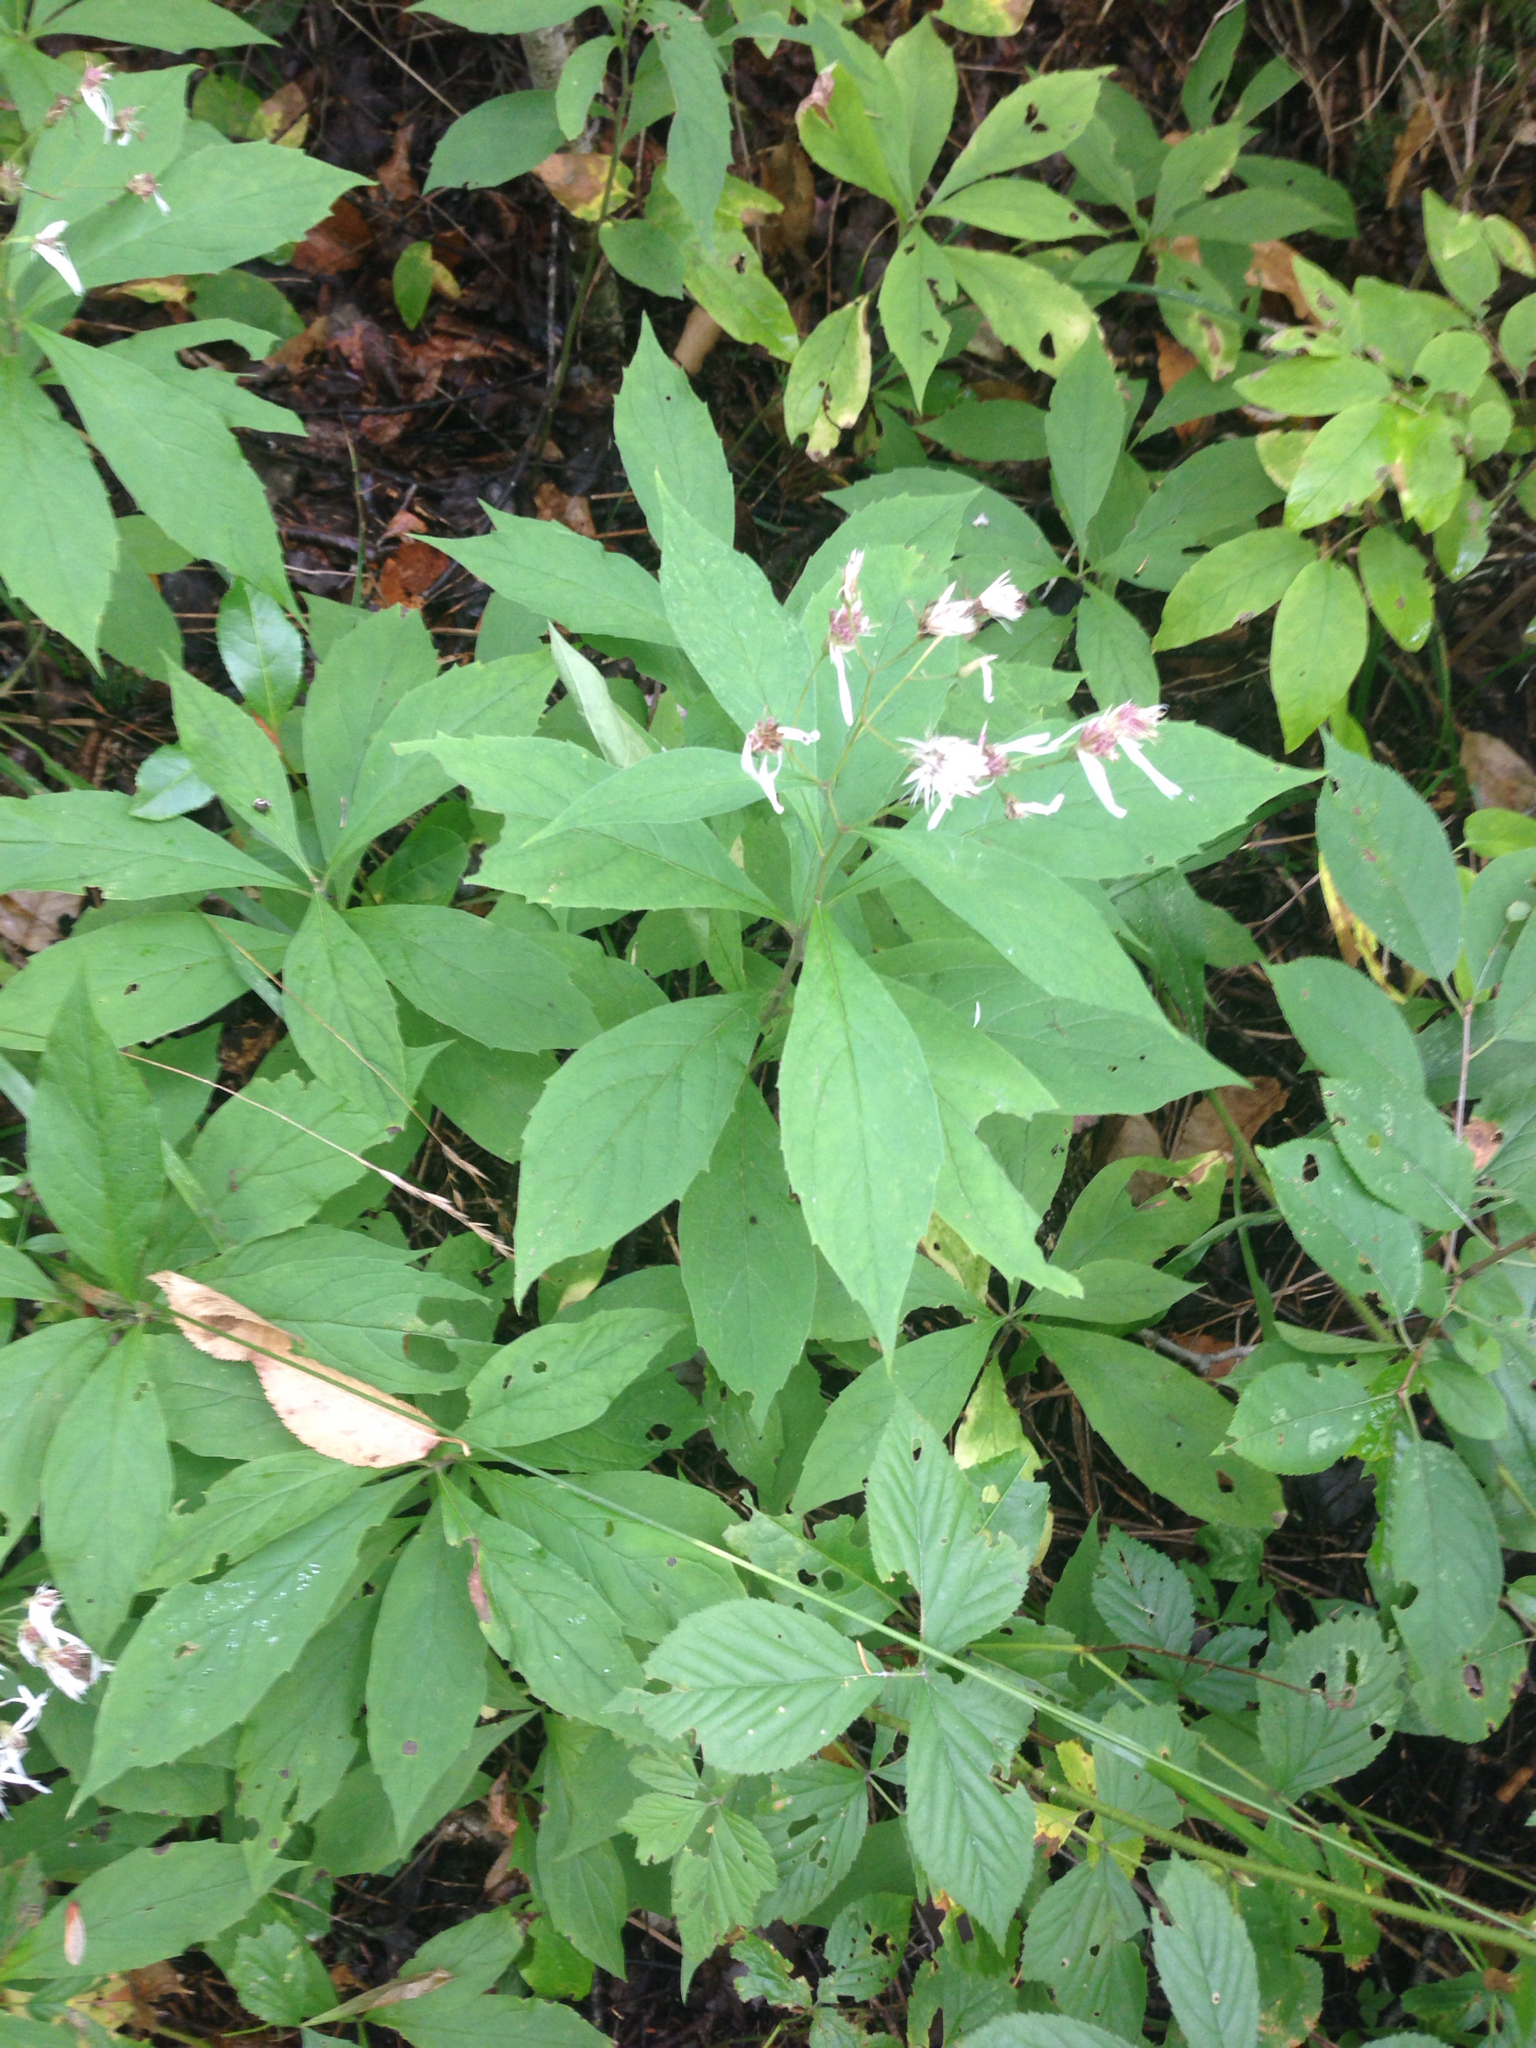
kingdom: Plantae
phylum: Tracheophyta
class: Magnoliopsida
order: Asterales
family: Asteraceae
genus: Oclemena
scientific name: Oclemena acuminata
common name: Mountain aster
